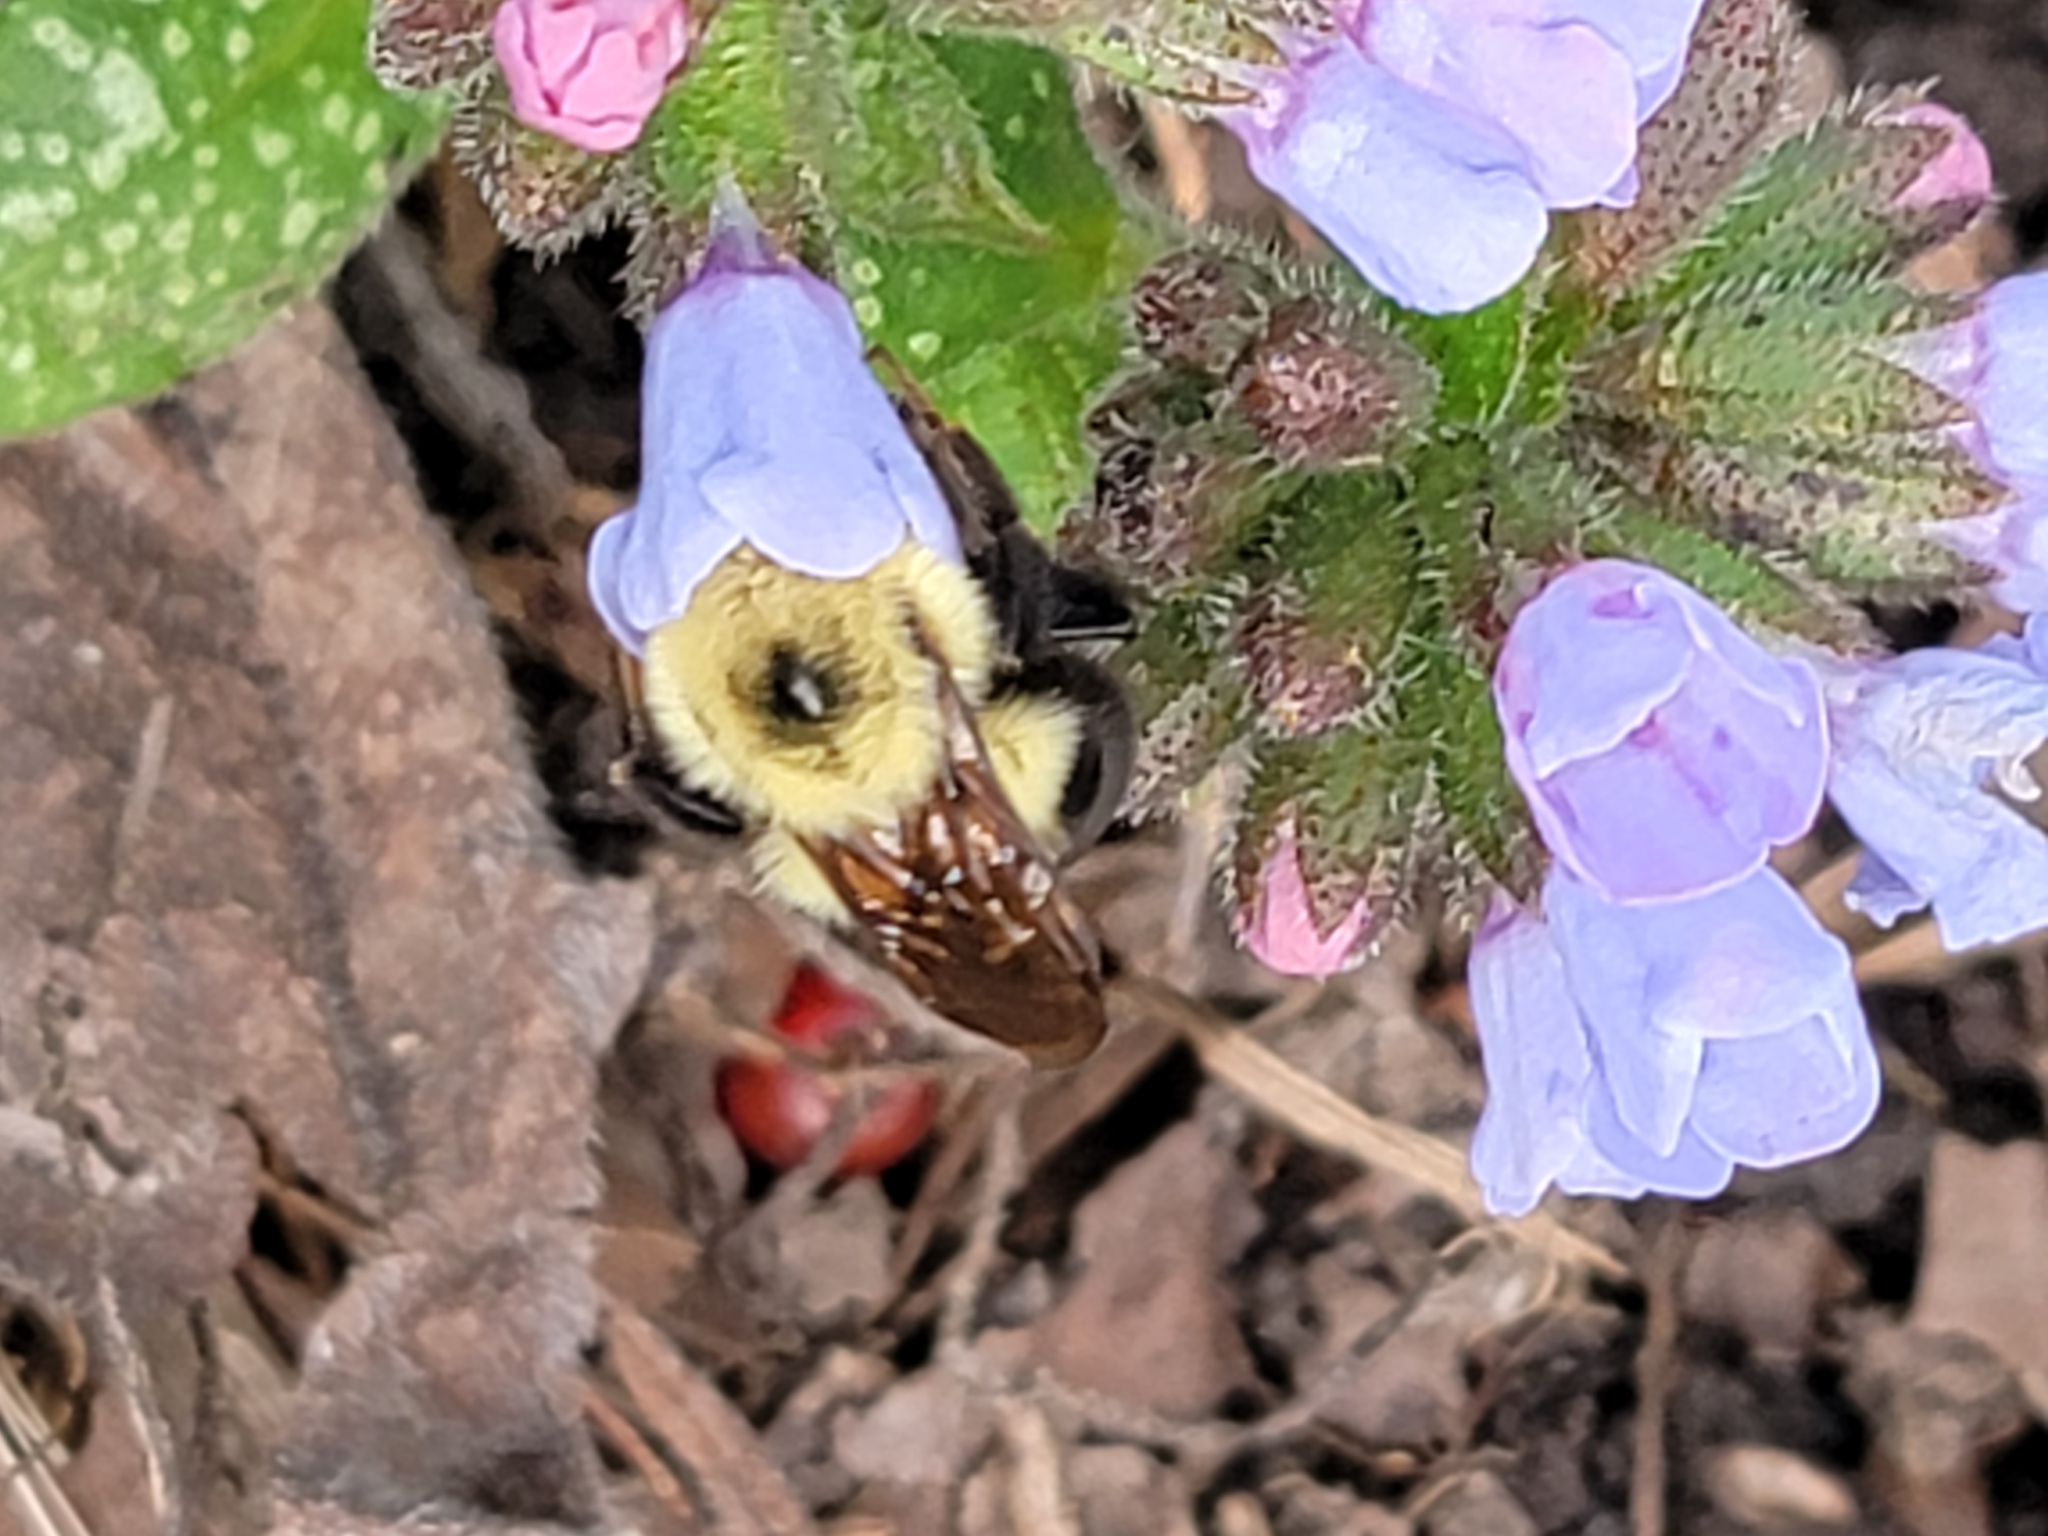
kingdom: Animalia
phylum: Arthropoda
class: Insecta
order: Hymenoptera
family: Apidae
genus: Bombus
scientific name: Bombus bimaculatus
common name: Two-spotted bumble bee
